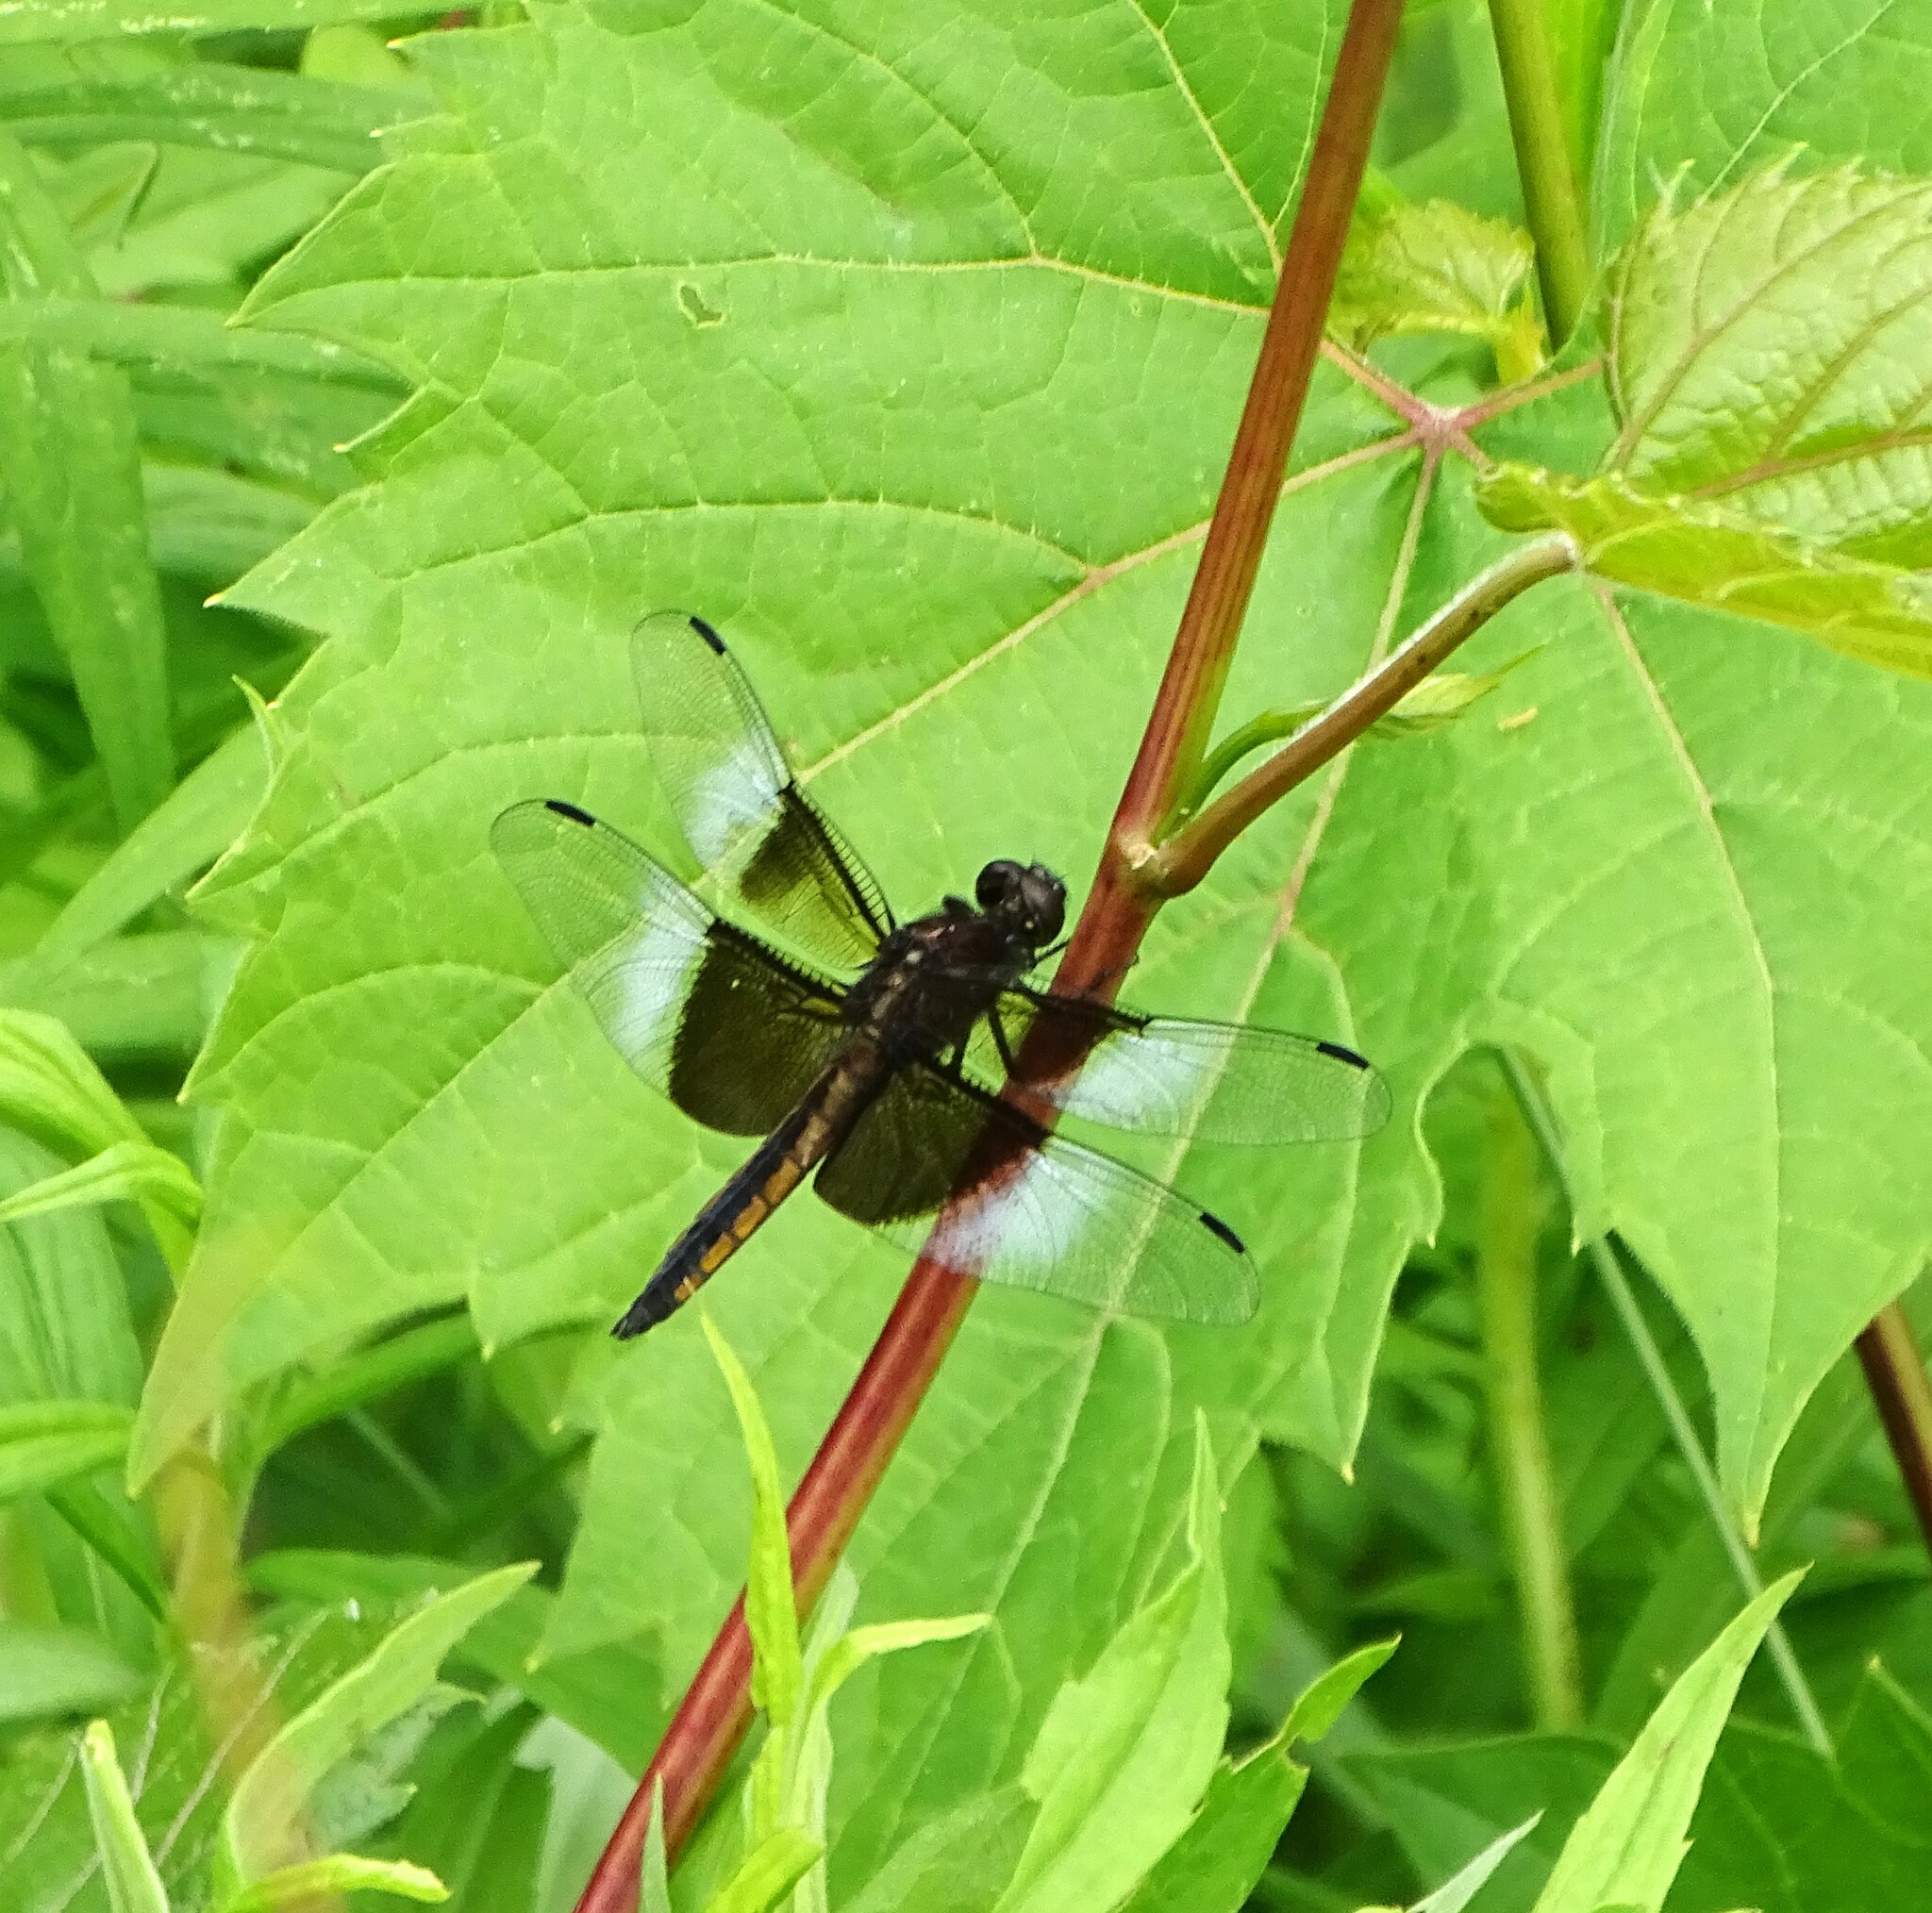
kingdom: Animalia
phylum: Arthropoda
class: Insecta
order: Odonata
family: Libellulidae
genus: Libellula
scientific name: Libellula luctuosa
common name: Widow skimmer
